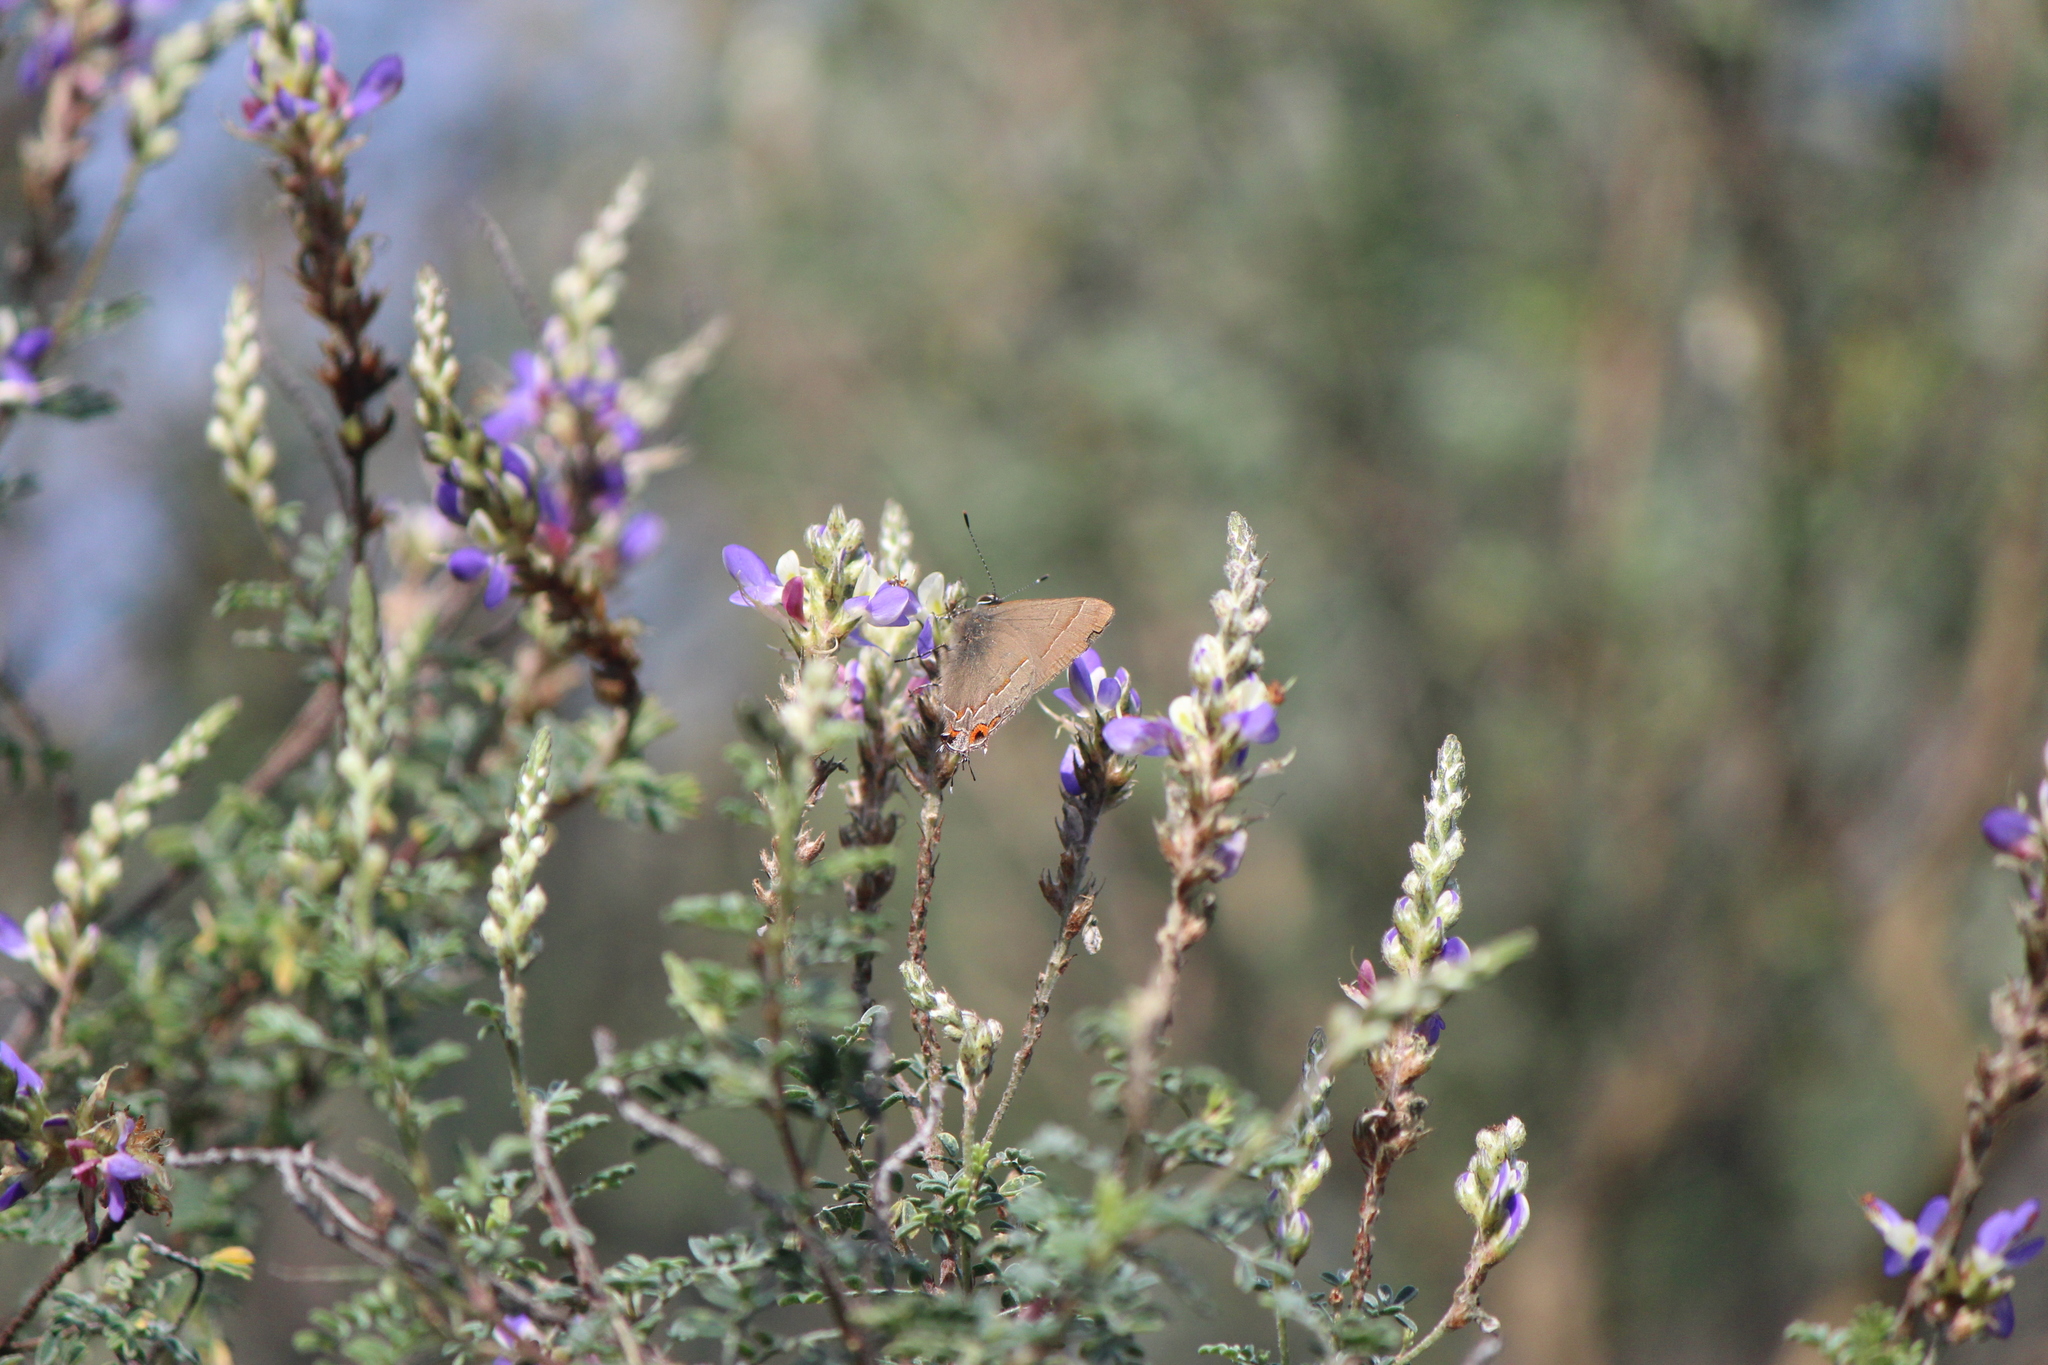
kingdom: Animalia
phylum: Arthropoda
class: Insecta
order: Lepidoptera
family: Lycaenidae
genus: Electrostrymon
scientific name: Electrostrymon
